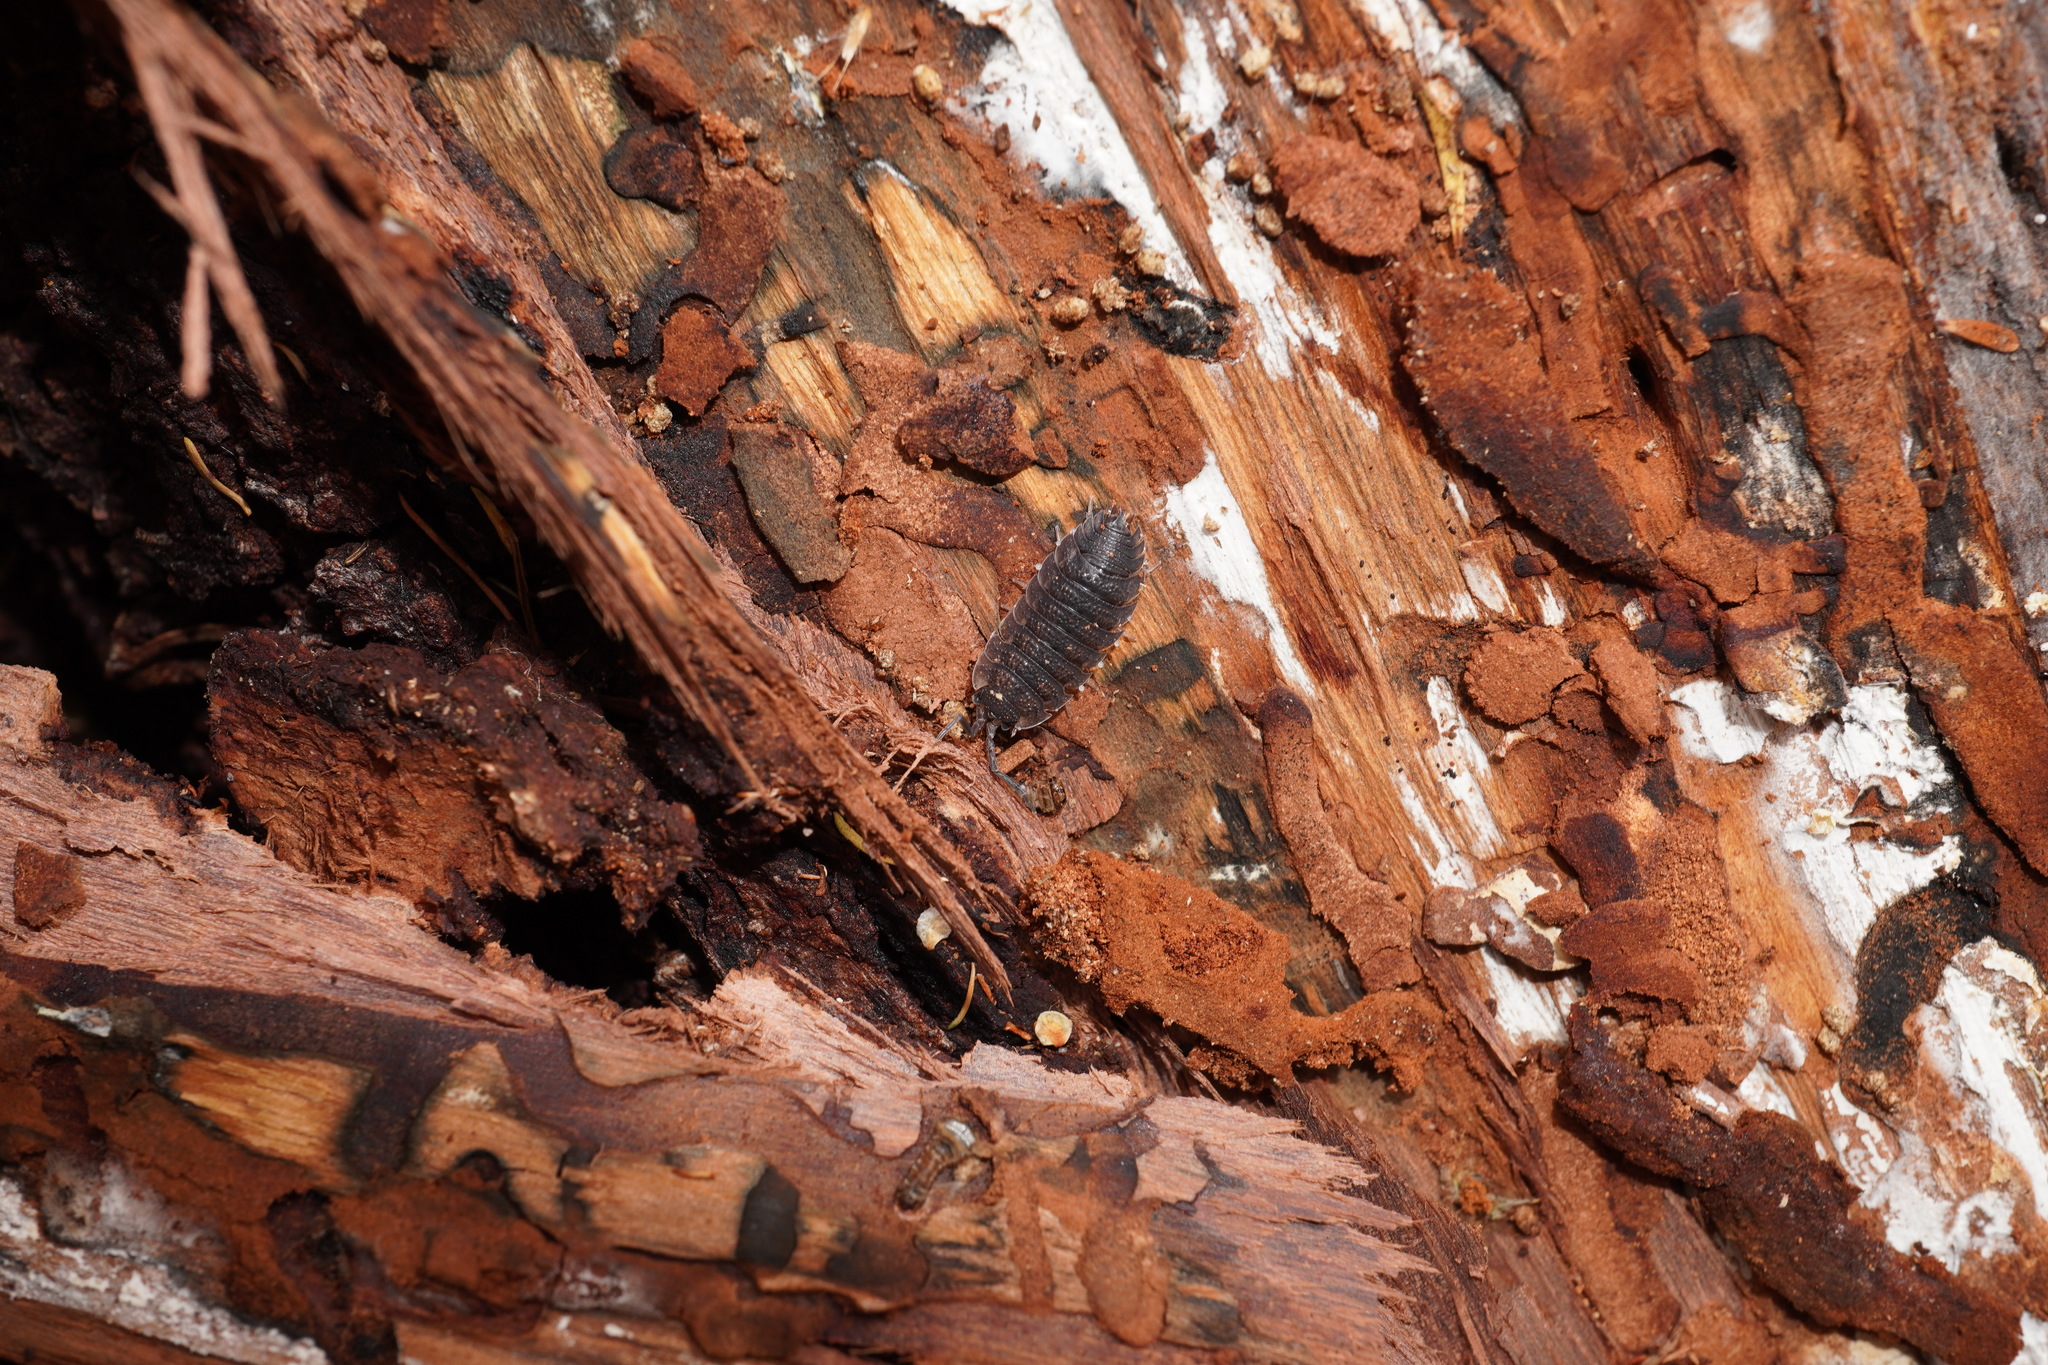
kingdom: Animalia
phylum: Arthropoda
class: Malacostraca
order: Isopoda
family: Porcellionidae
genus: Porcellio
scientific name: Porcellio scaber
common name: Common rough woodlouse
